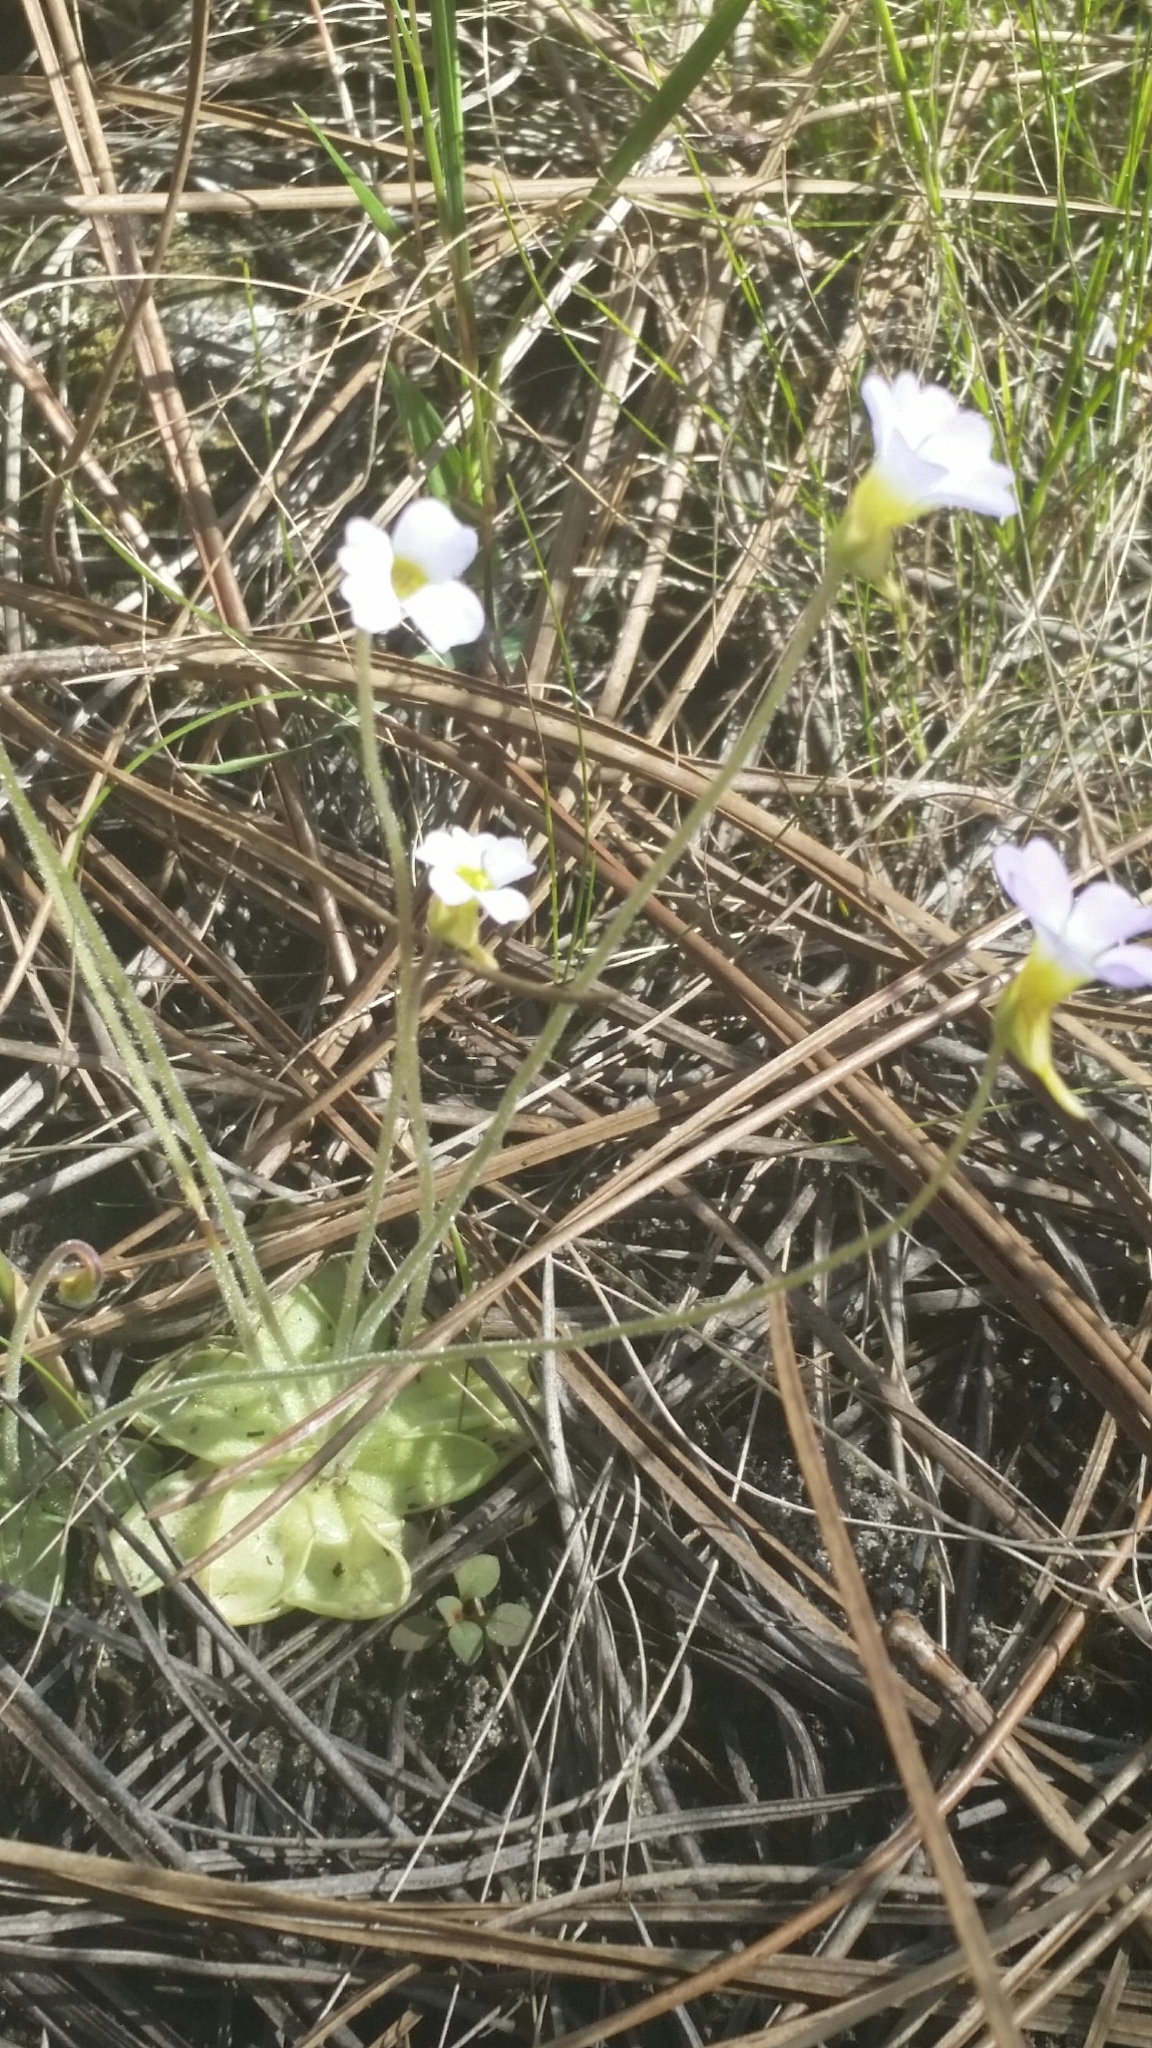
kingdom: Plantae
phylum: Tracheophyta
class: Magnoliopsida
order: Lamiales
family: Lentibulariaceae
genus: Pinguicula
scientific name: Pinguicula pumila
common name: Small butterwort
